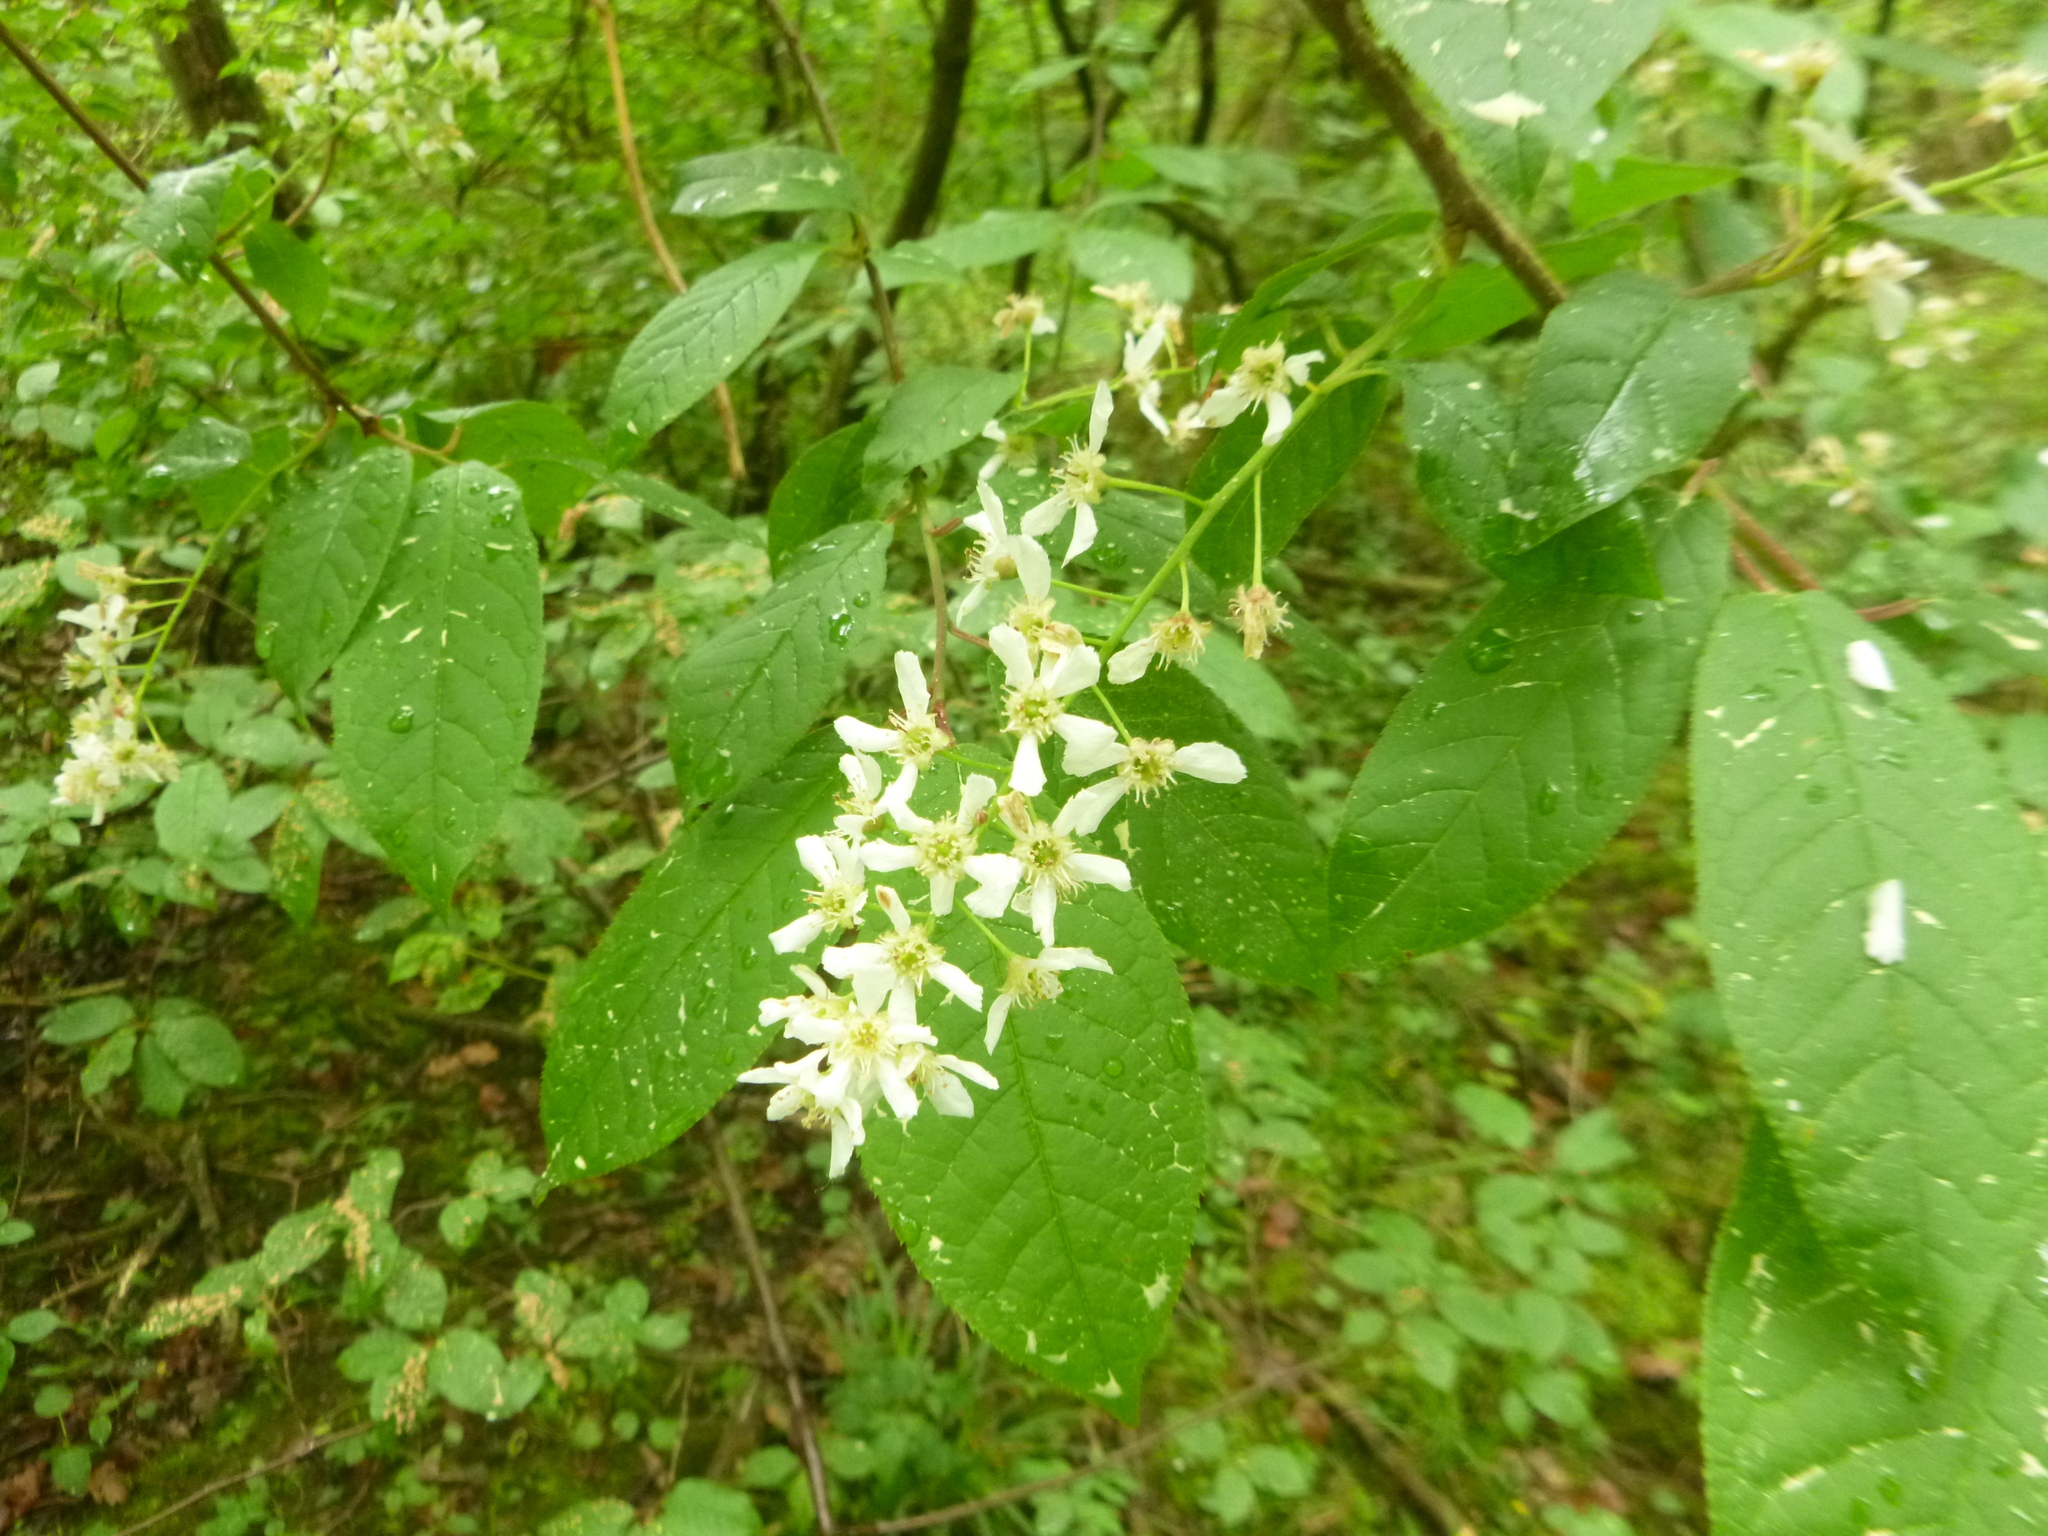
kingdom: Plantae
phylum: Tracheophyta
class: Magnoliopsida
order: Rosales
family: Rosaceae
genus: Prunus
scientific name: Prunus padus
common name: Bird cherry
